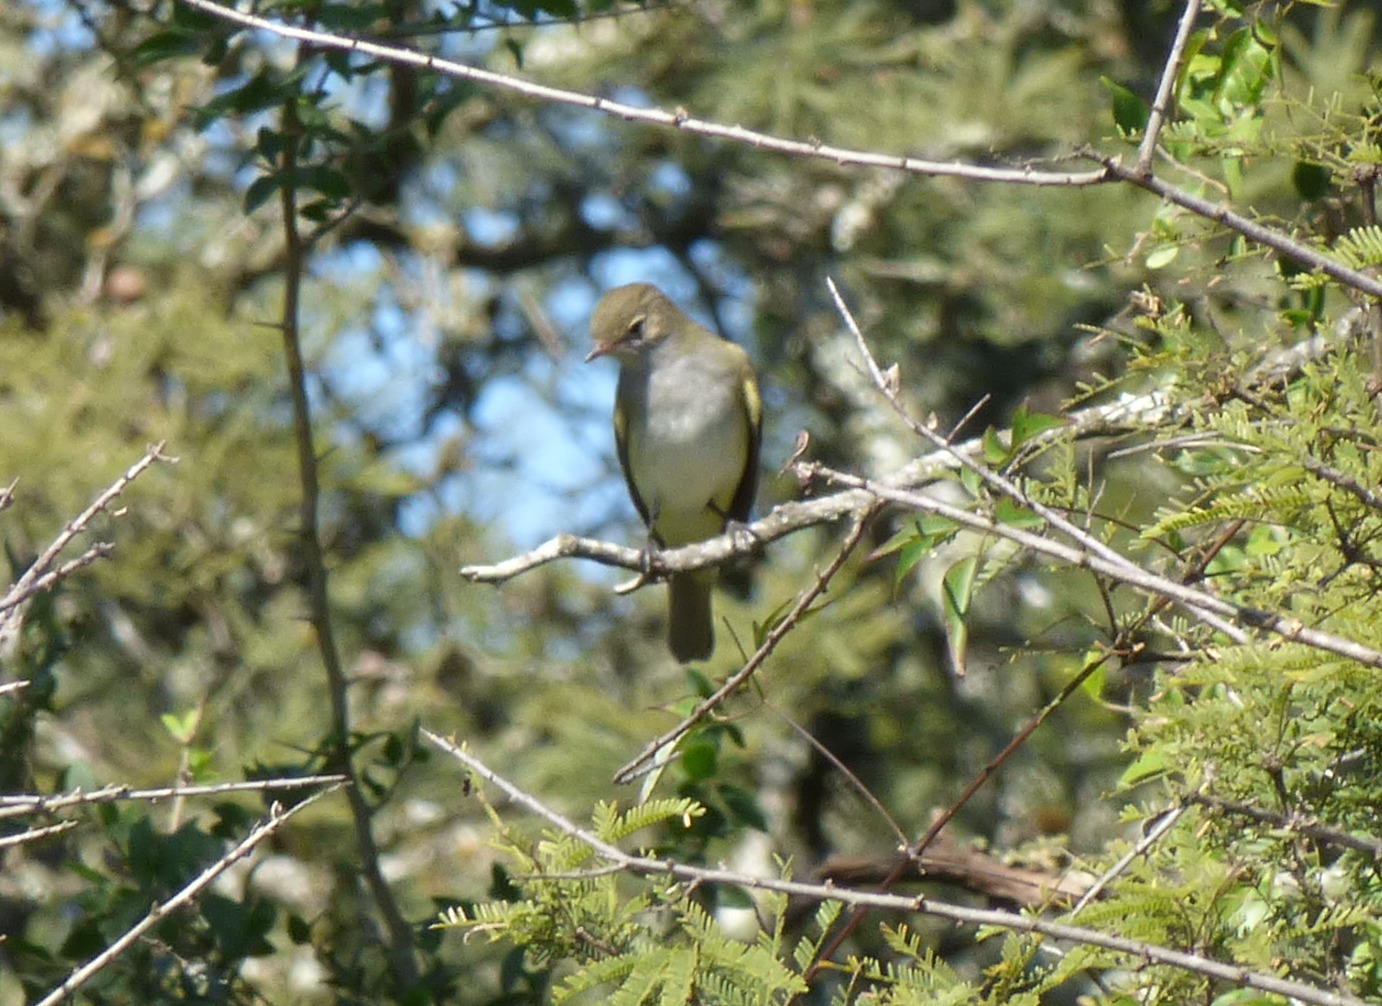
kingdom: Animalia
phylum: Chordata
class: Aves
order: Passeriformes
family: Tyrannidae
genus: Elaenia
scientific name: Elaenia albiceps
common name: White-crested elaenia
